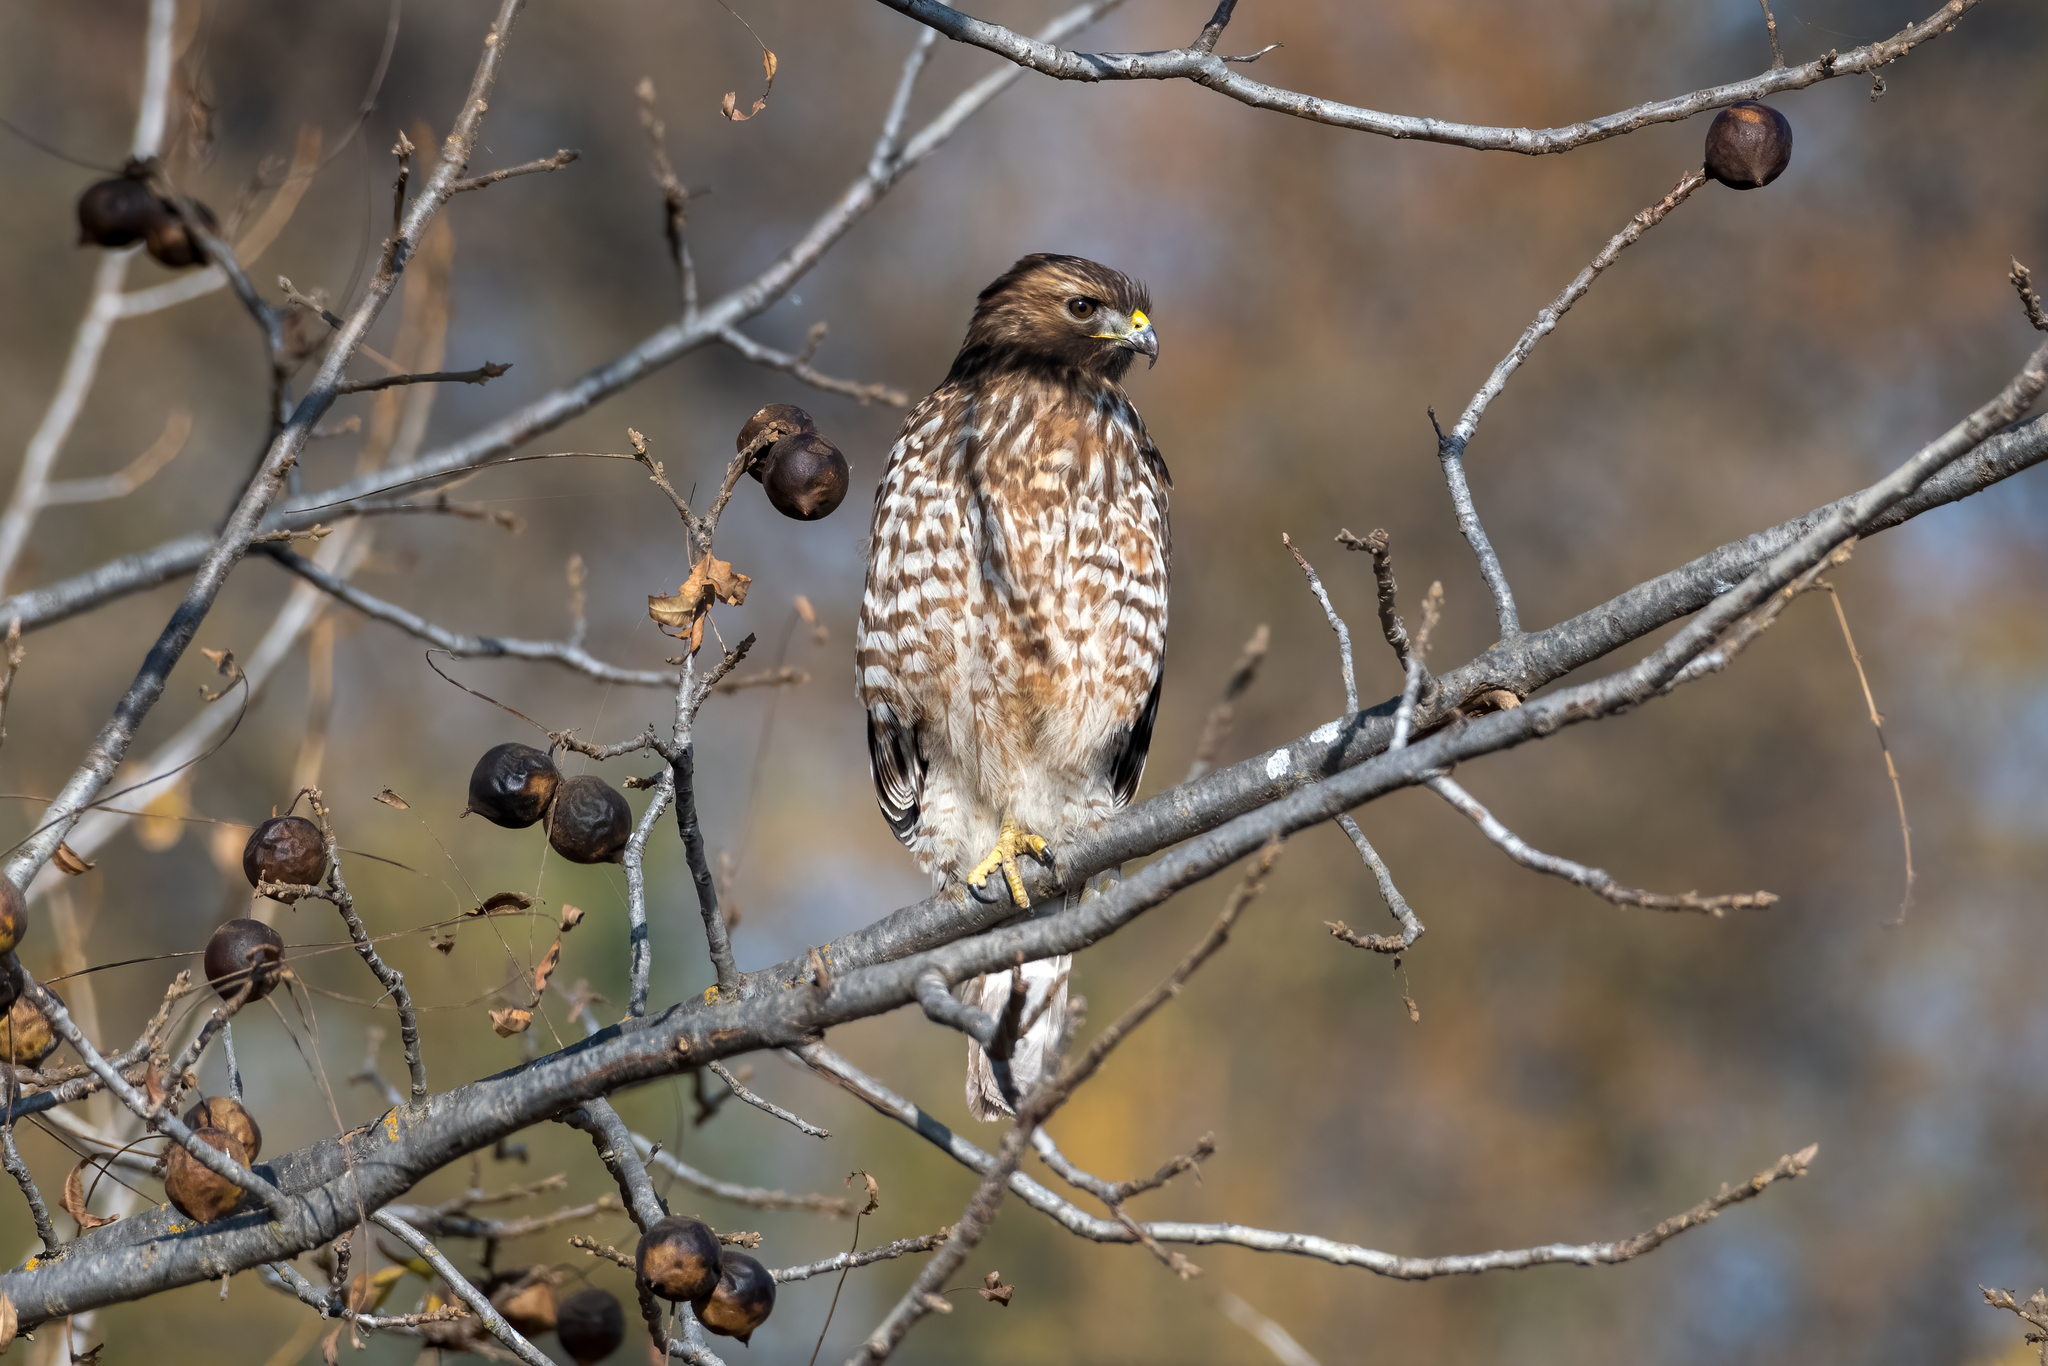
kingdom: Animalia
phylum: Chordata
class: Aves
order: Accipitriformes
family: Accipitridae
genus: Buteo
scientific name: Buteo lineatus
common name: Red-shouldered hawk
